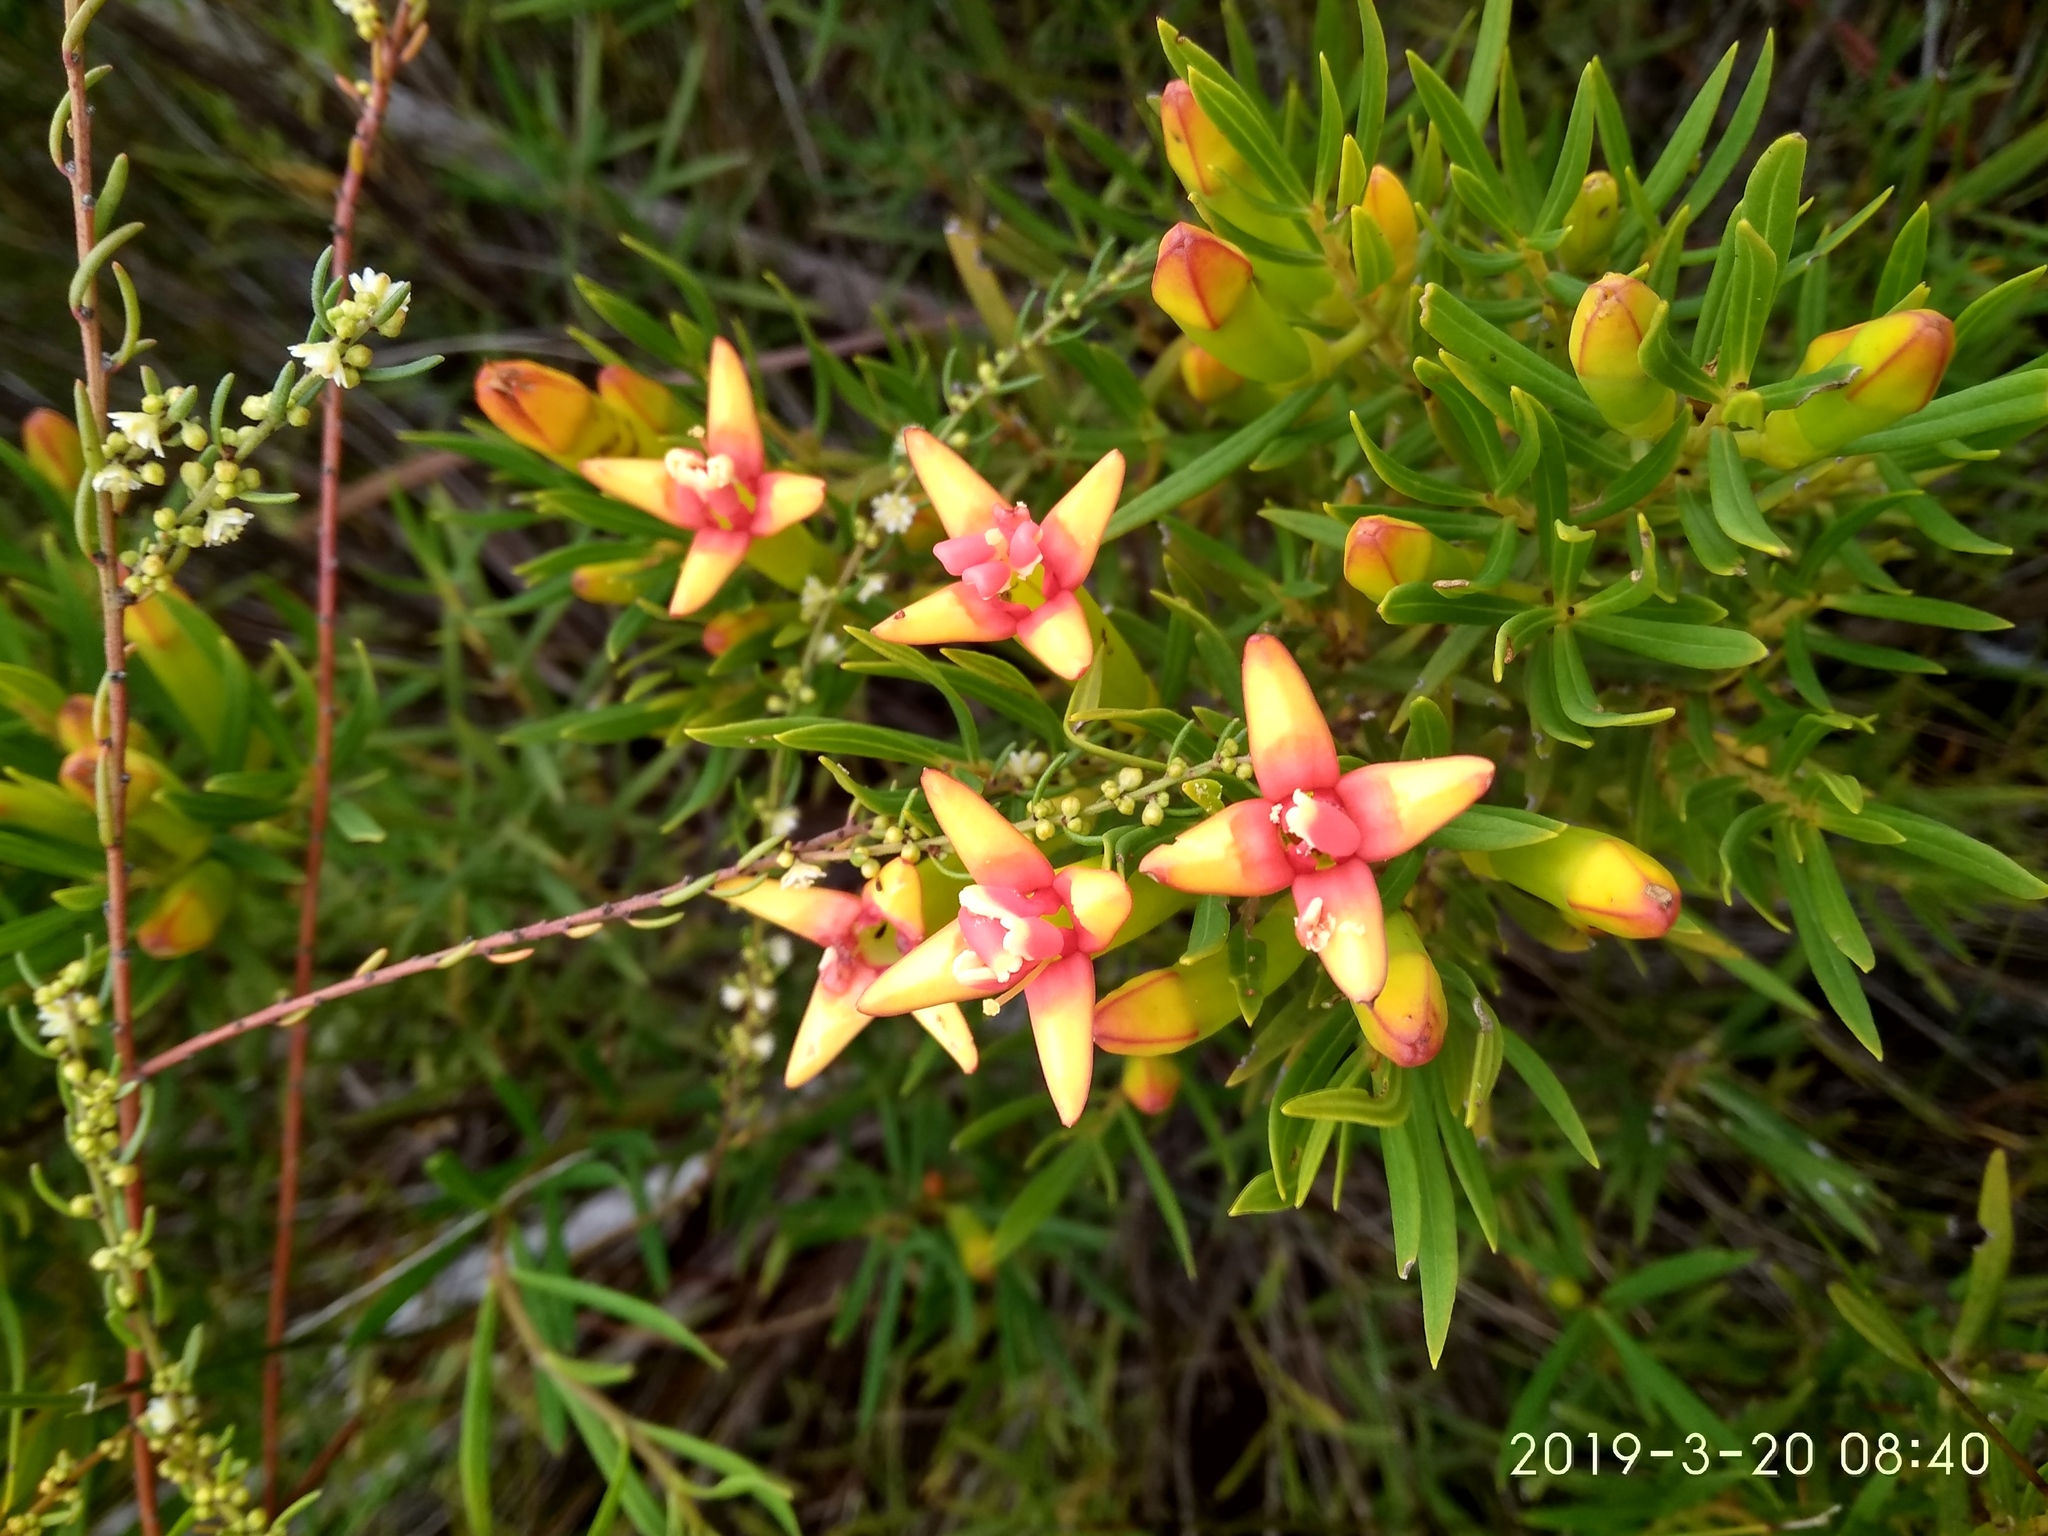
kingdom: Plantae
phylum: Tracheophyta
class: Magnoliopsida
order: Myrtales
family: Penaeaceae
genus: Endonema
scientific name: Endonema retzioides
